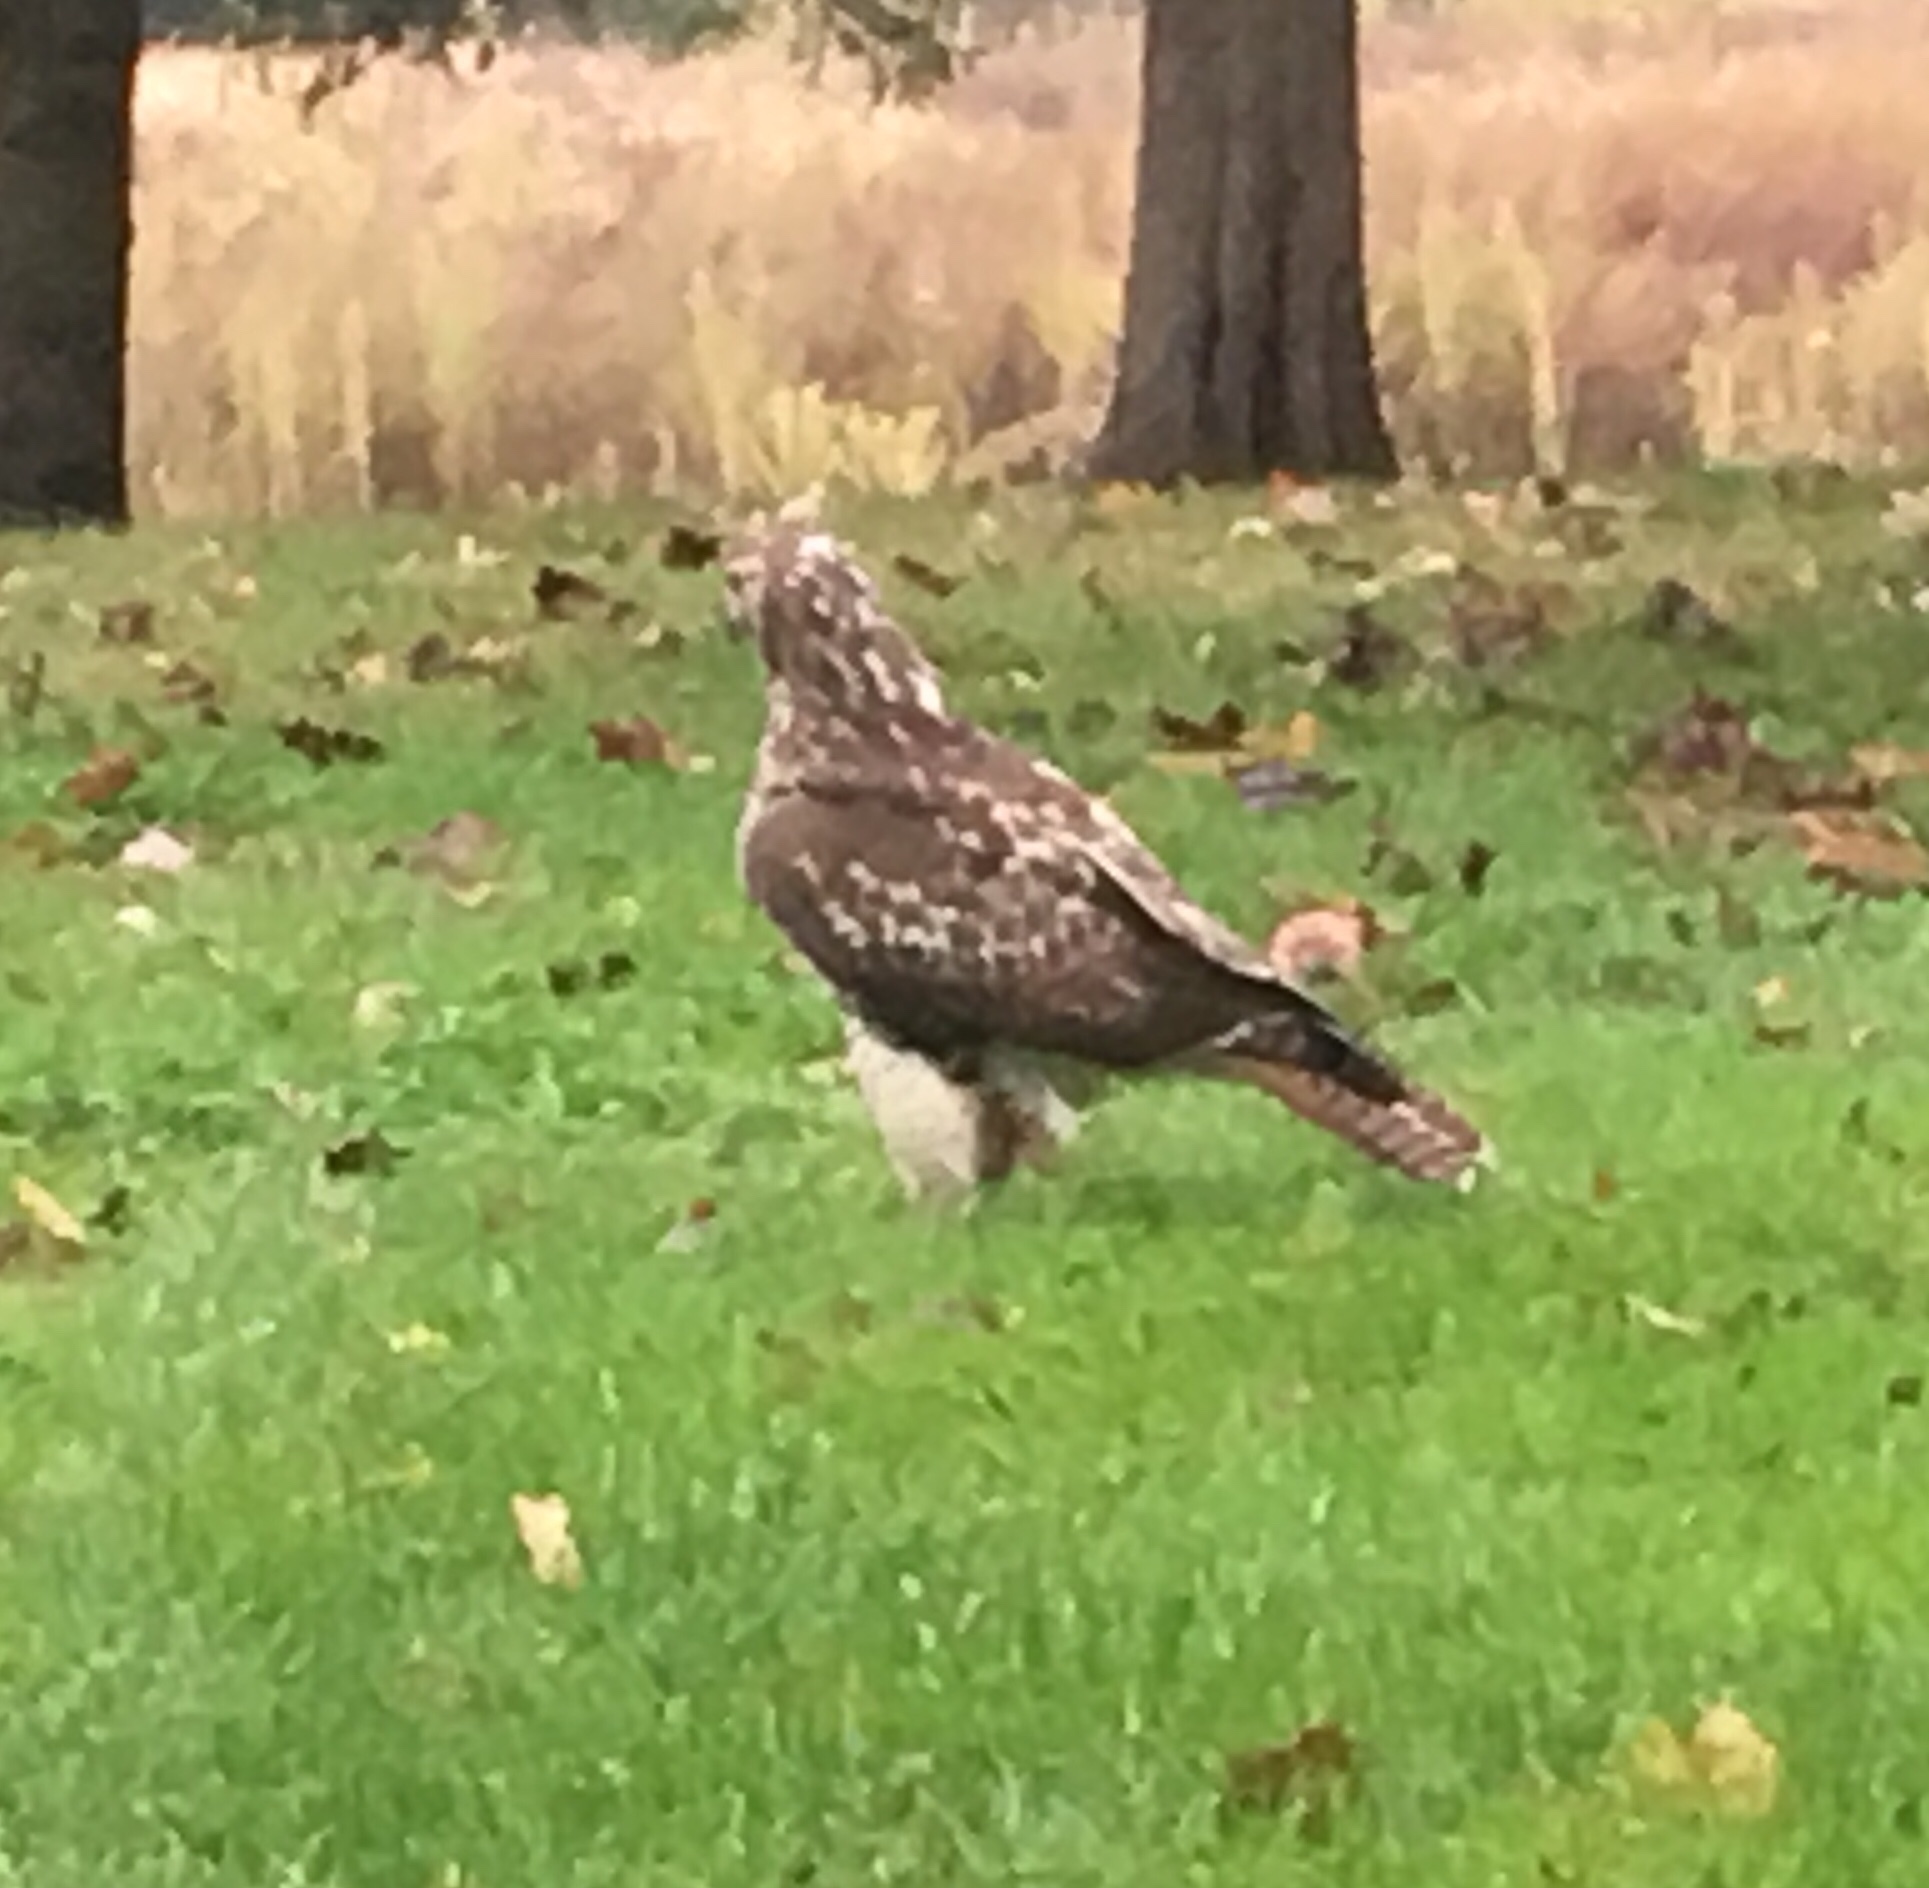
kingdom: Animalia
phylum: Chordata
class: Aves
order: Accipitriformes
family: Accipitridae
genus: Buteo
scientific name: Buteo jamaicensis
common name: Red-tailed hawk
